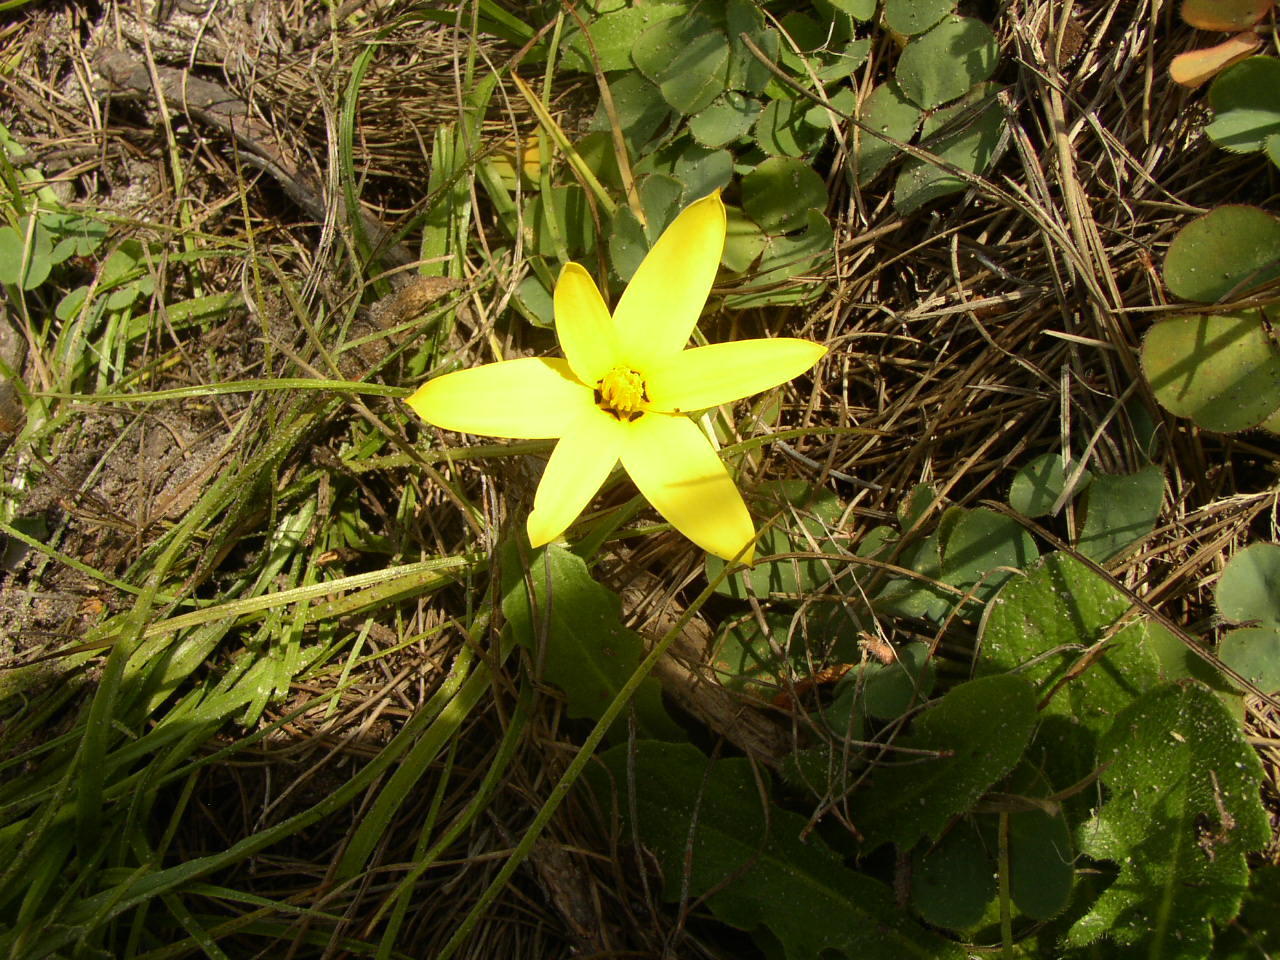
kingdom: Plantae
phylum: Tracheophyta
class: Liliopsida
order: Asparagales
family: Hypoxidaceae
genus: Pauridia
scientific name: Pauridia capensis
